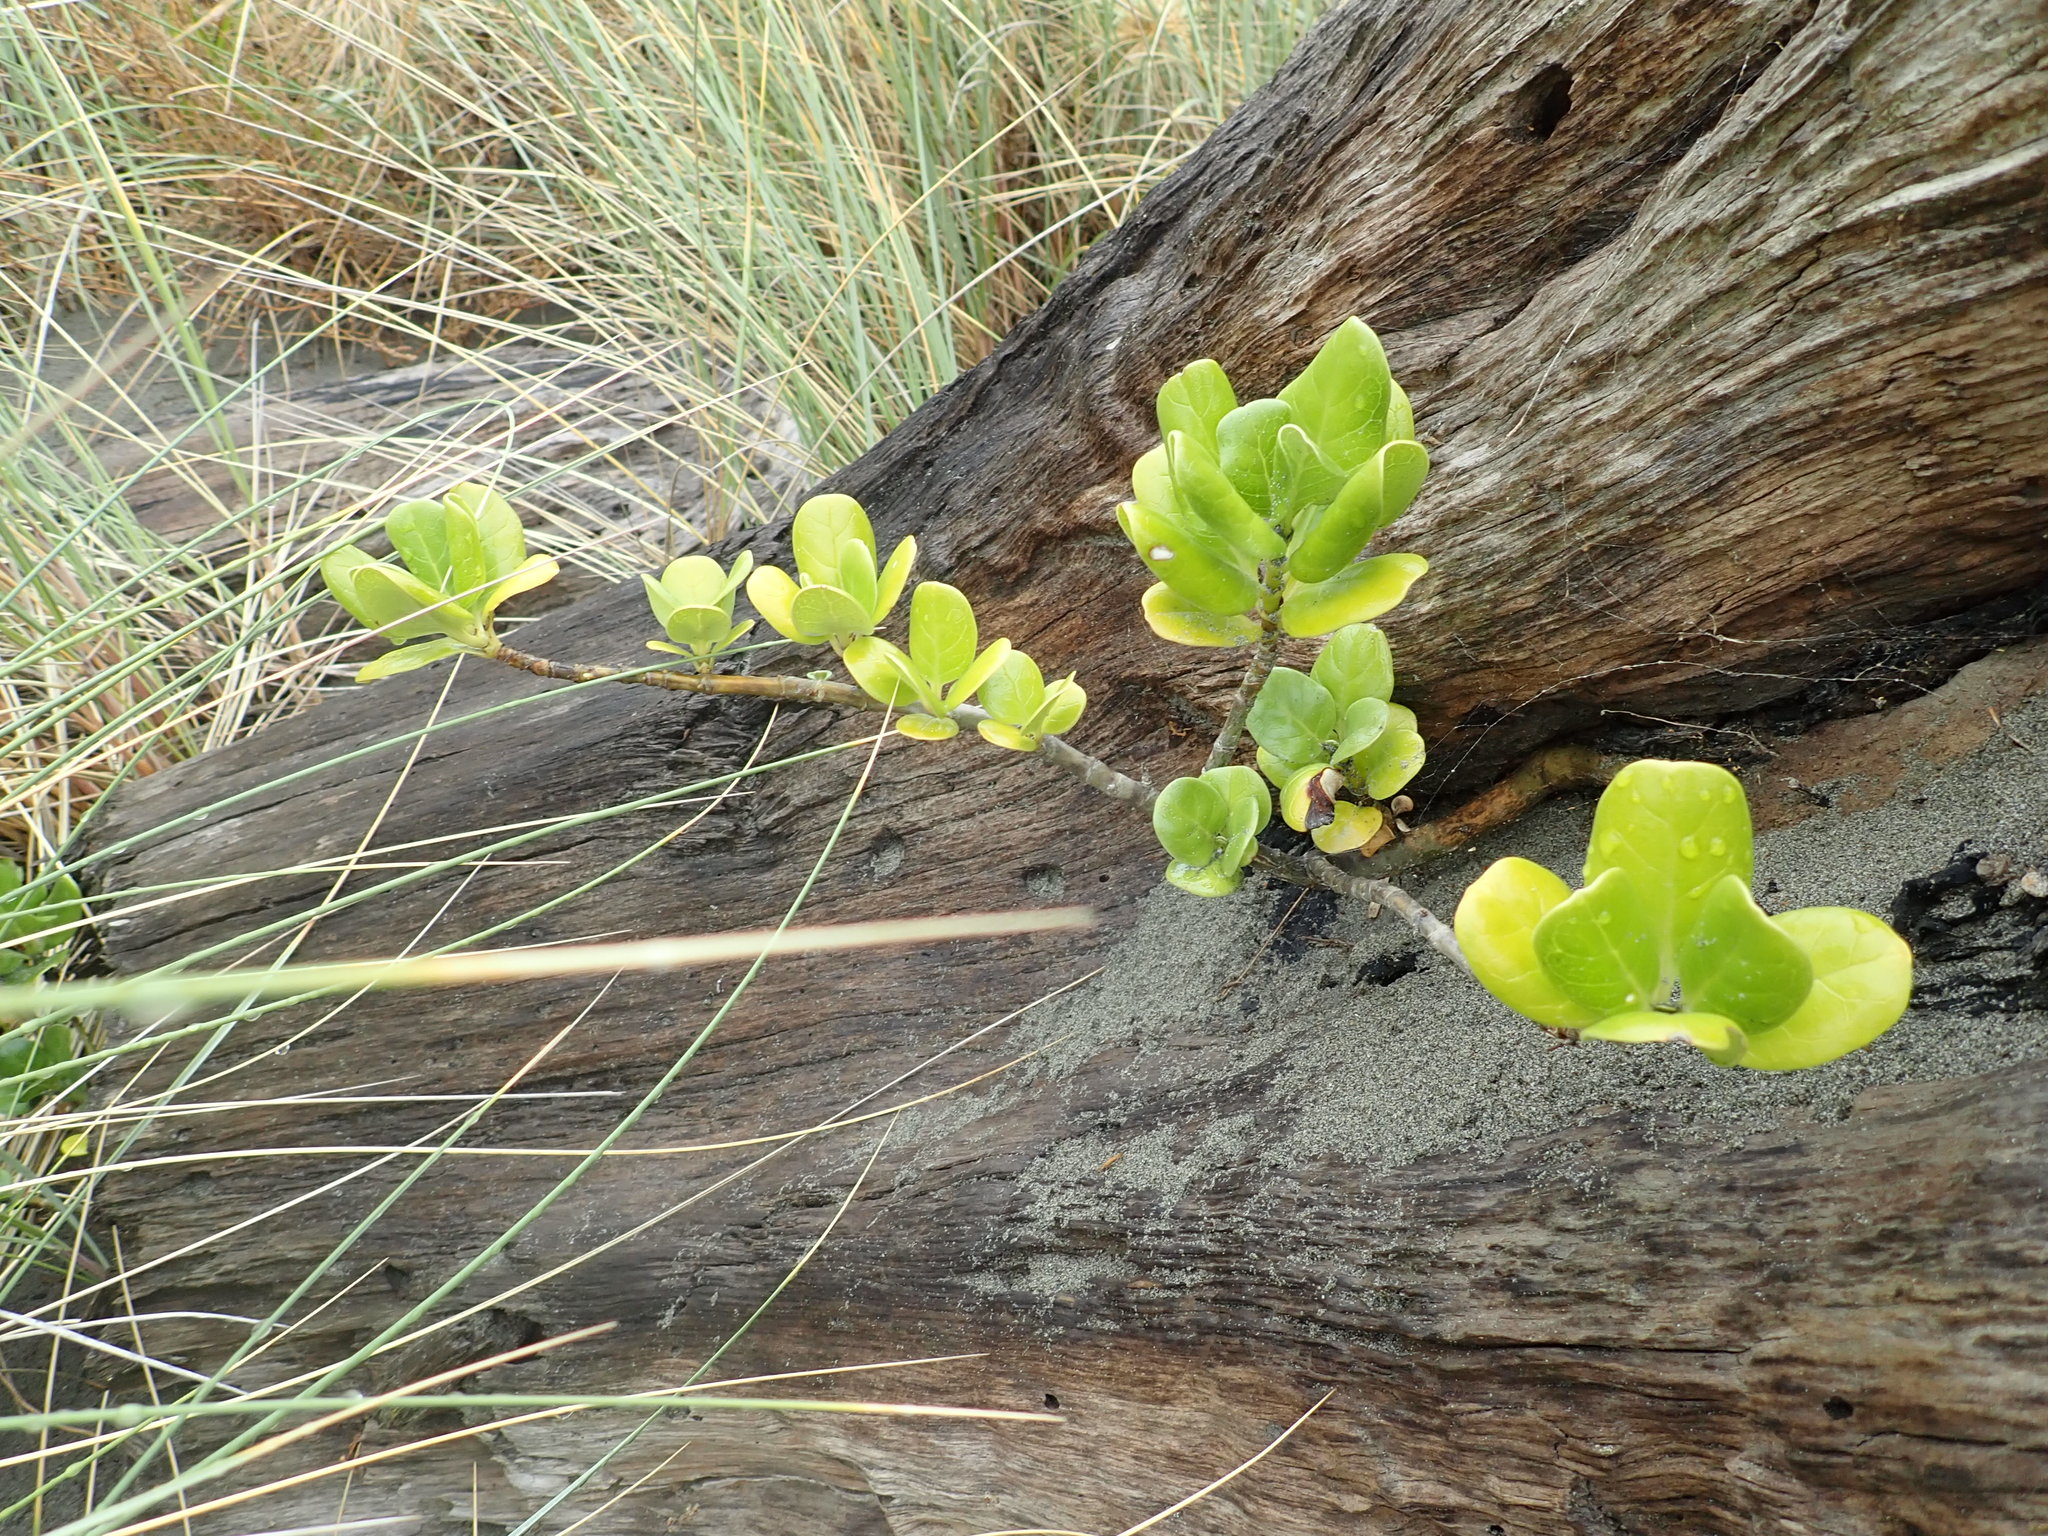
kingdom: Plantae
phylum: Tracheophyta
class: Magnoliopsida
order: Gentianales
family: Rubiaceae
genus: Coprosma
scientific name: Coprosma repens
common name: Tree bedstraw
